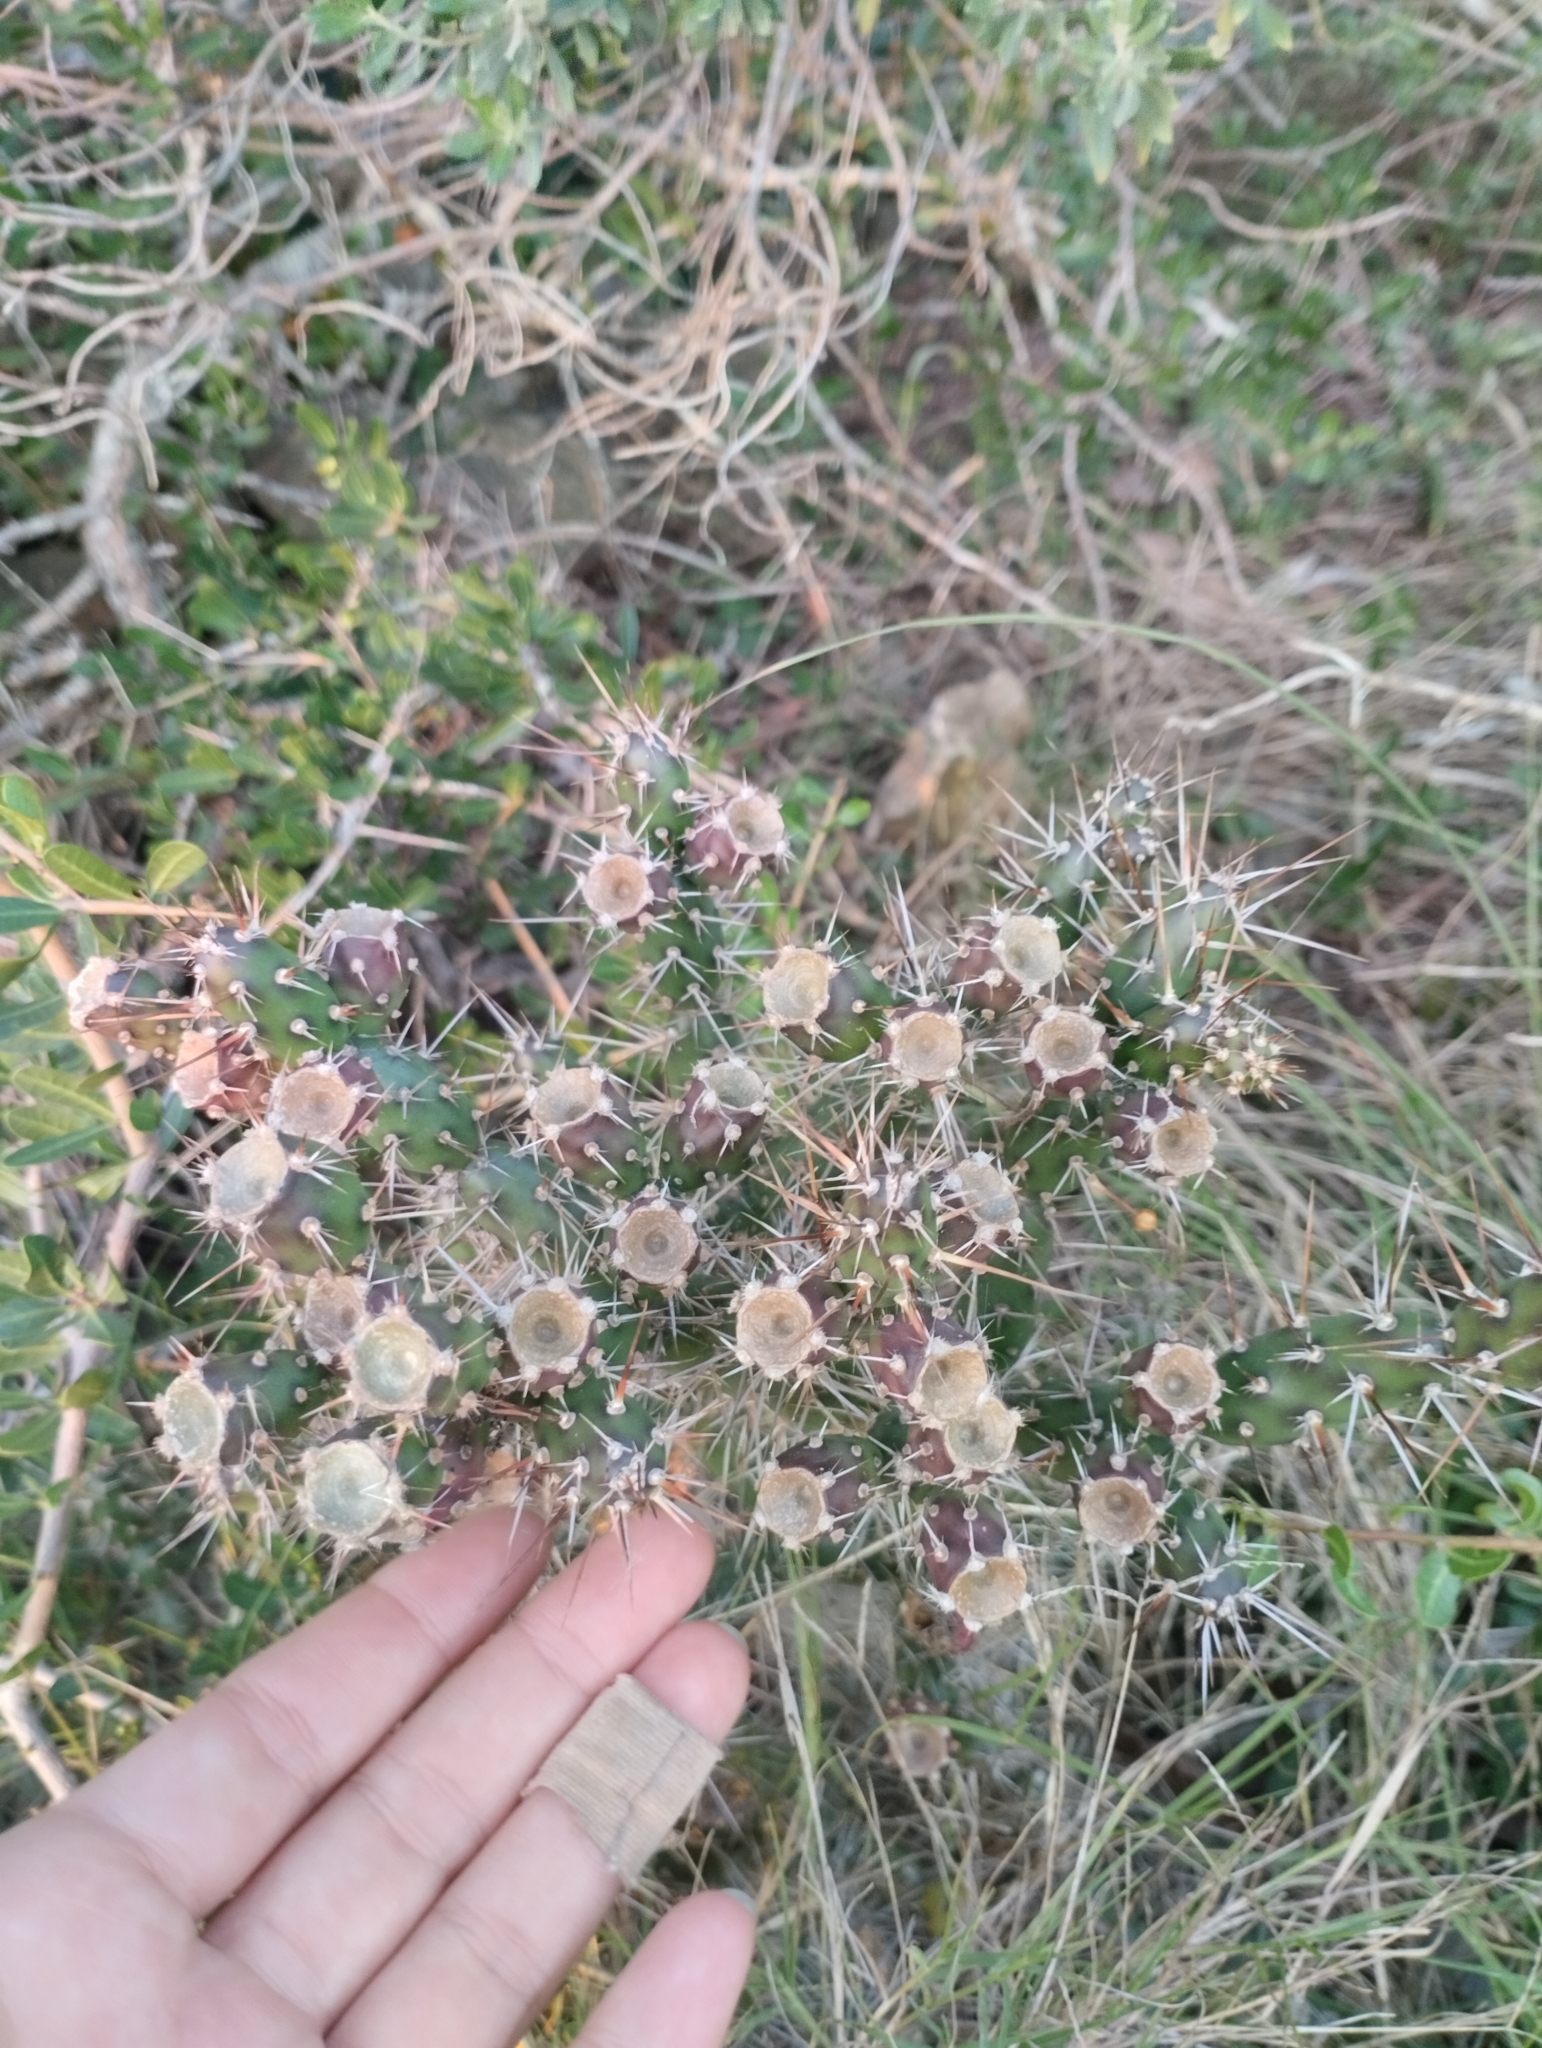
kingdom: Plantae
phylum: Tracheophyta
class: Magnoliopsida
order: Caryophyllales
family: Cactaceae
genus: Opuntia
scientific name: Opuntia aurantiaca
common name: Jointed pricklypear
